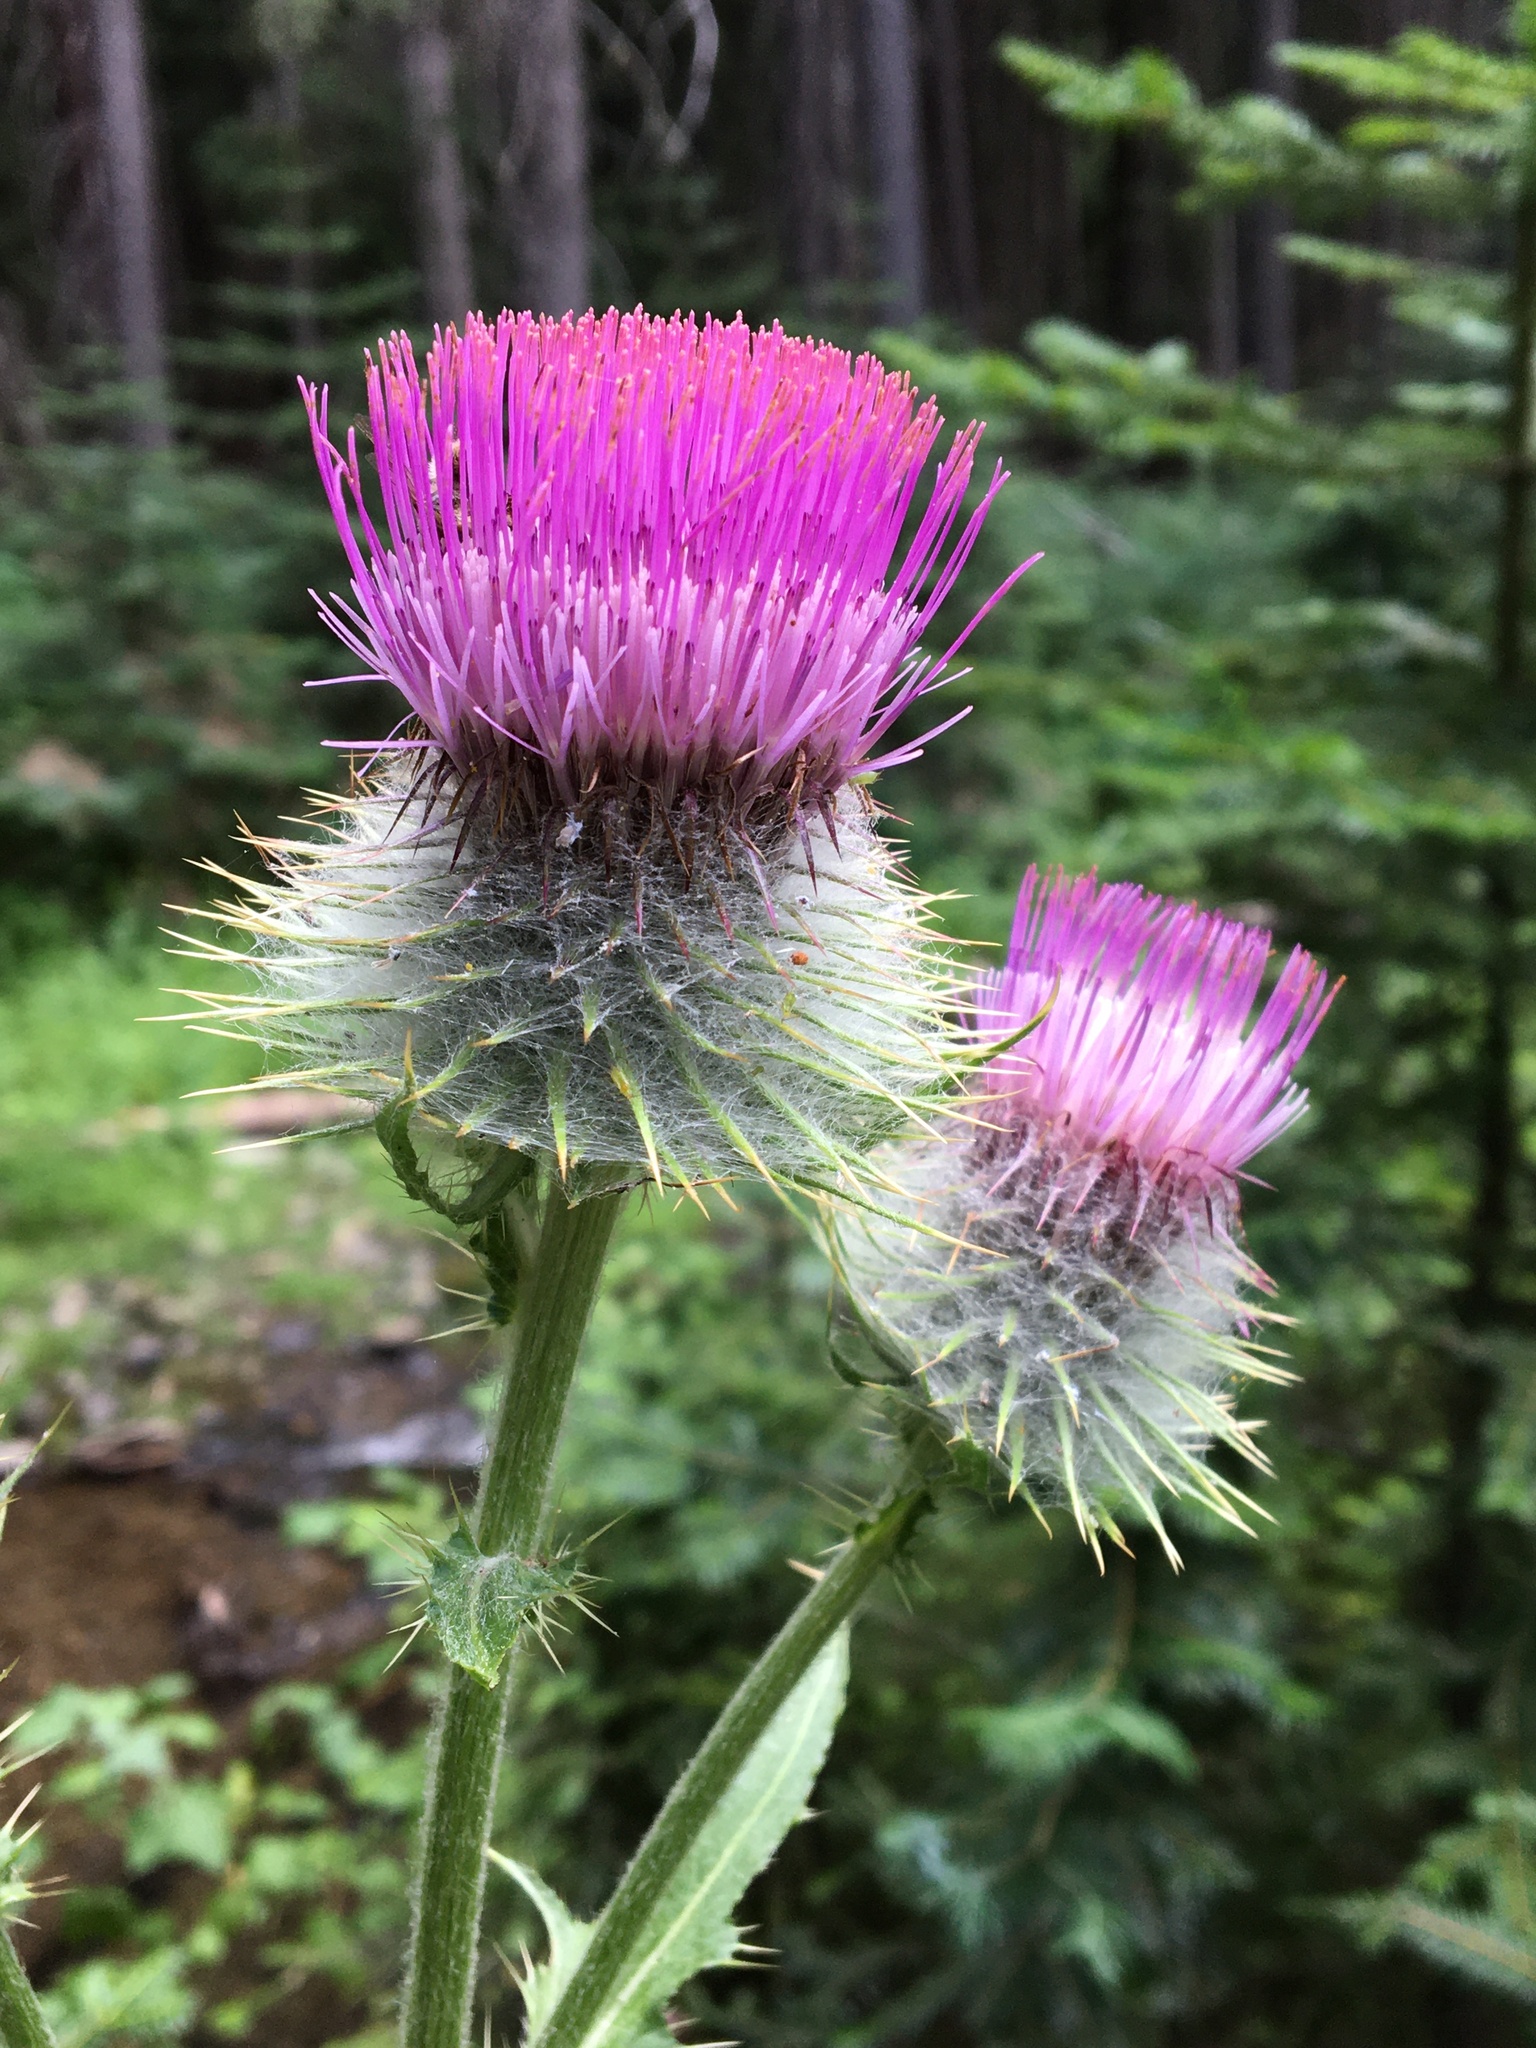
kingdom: Plantae
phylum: Tracheophyta
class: Magnoliopsida
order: Asterales
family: Asteraceae
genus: Cirsium
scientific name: Cirsium edule
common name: Indian thistle
